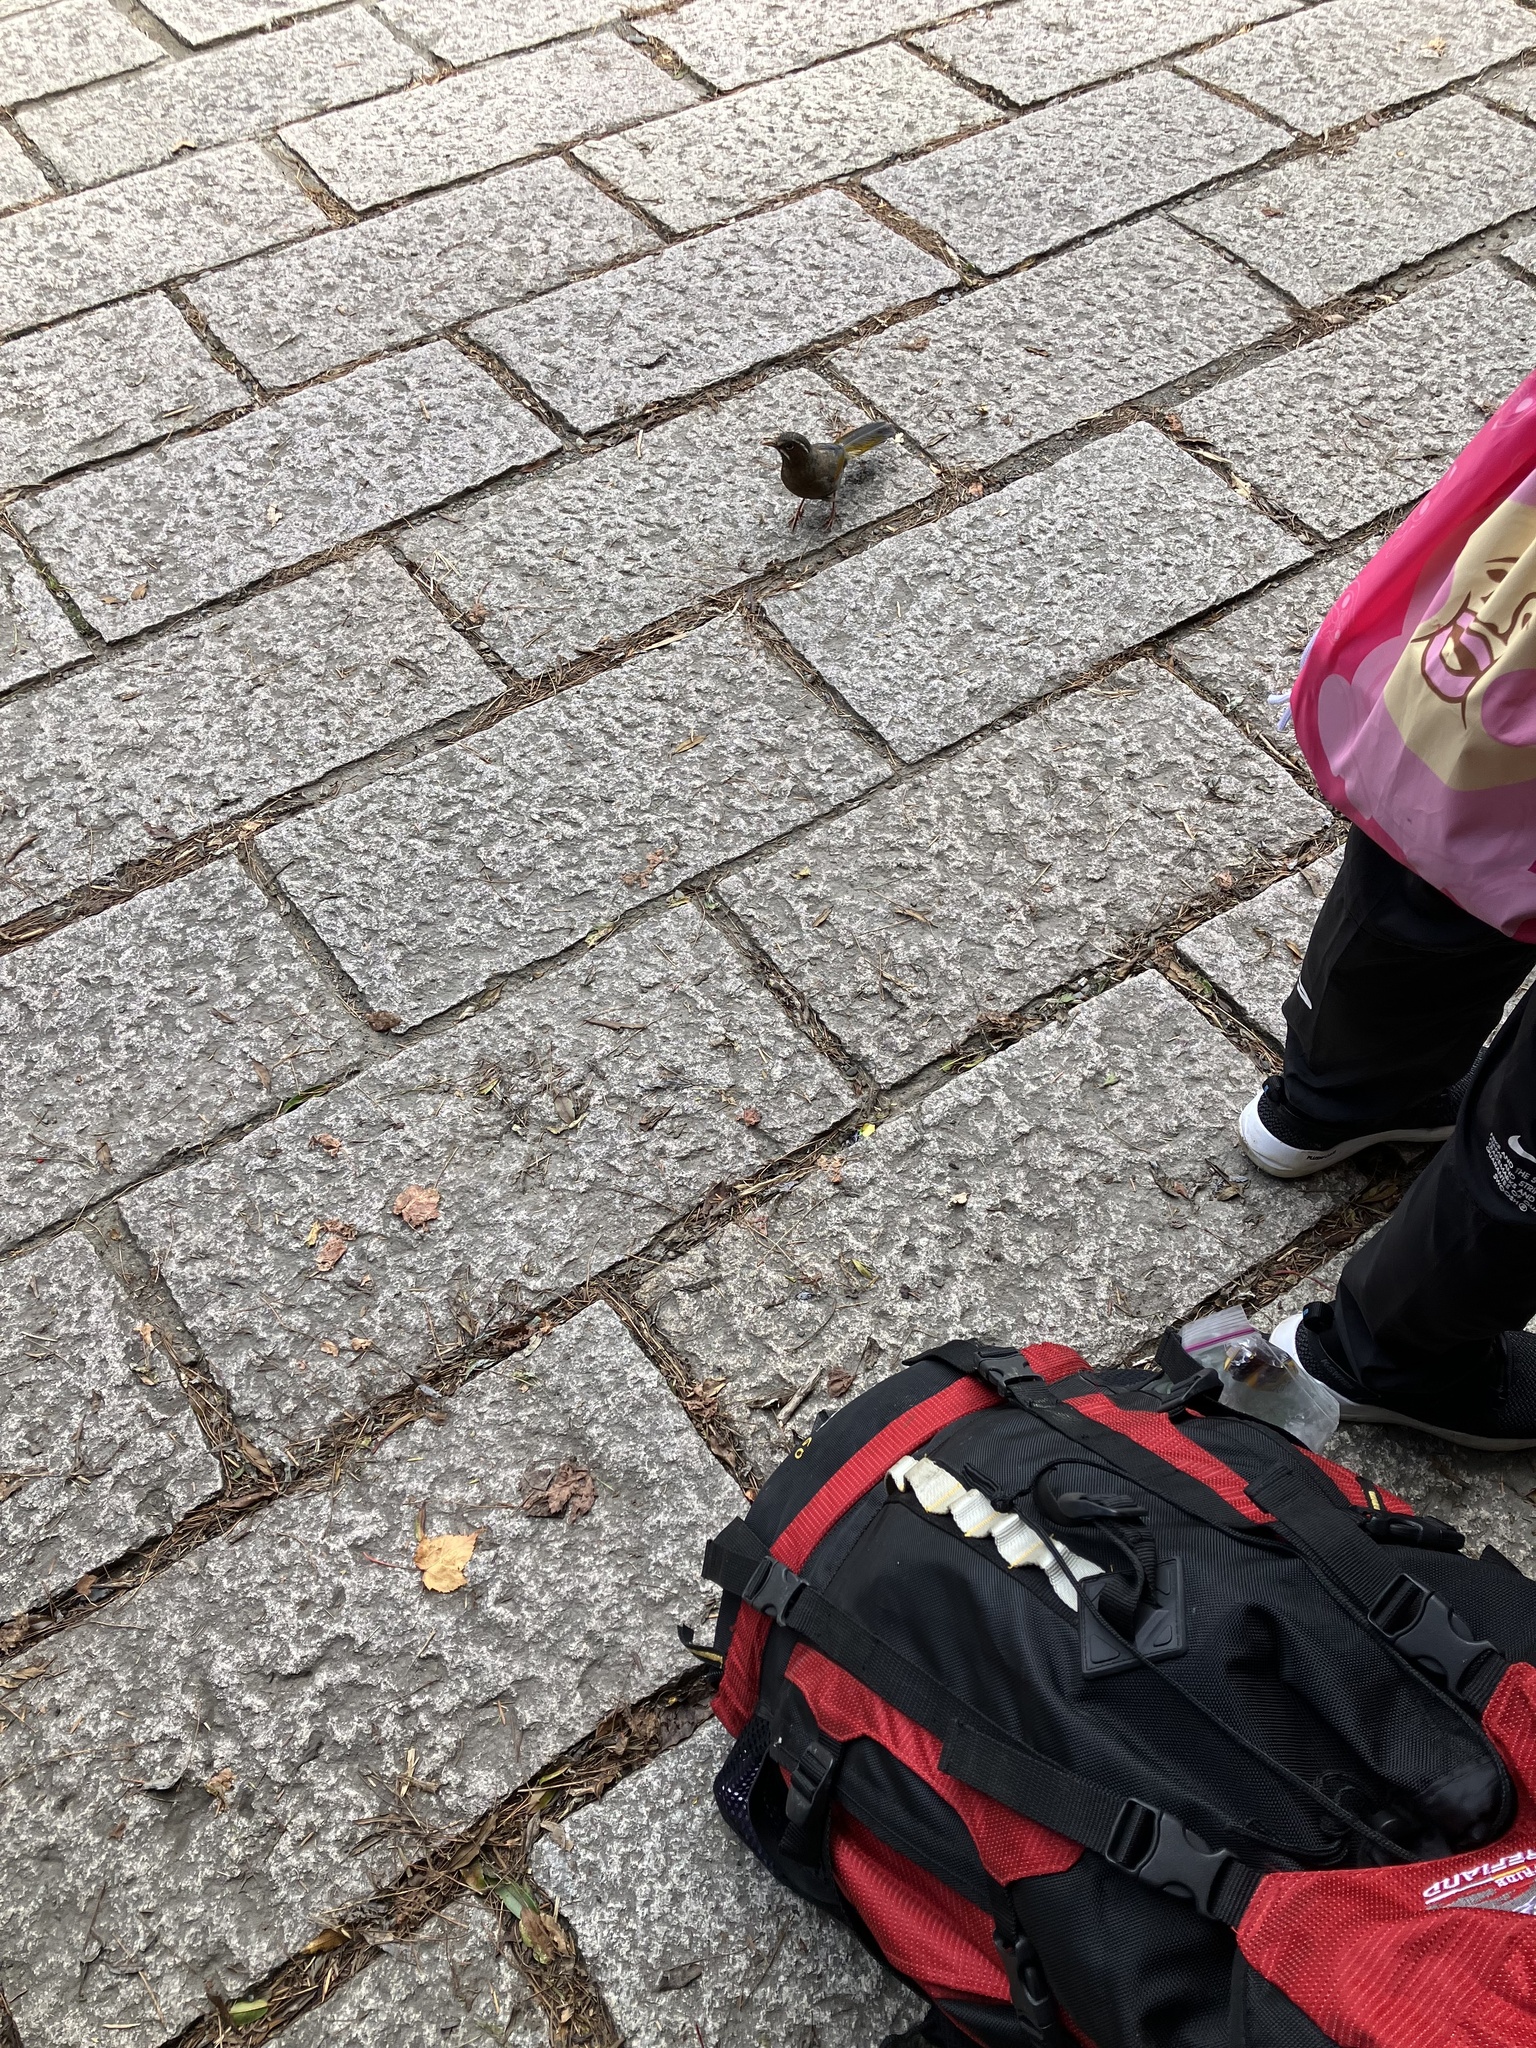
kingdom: Animalia
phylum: Chordata
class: Aves
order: Passeriformes
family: Leiothrichidae
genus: Trochalopteron
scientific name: Trochalopteron morrisonianum
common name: White-whiskered laughingthrush
